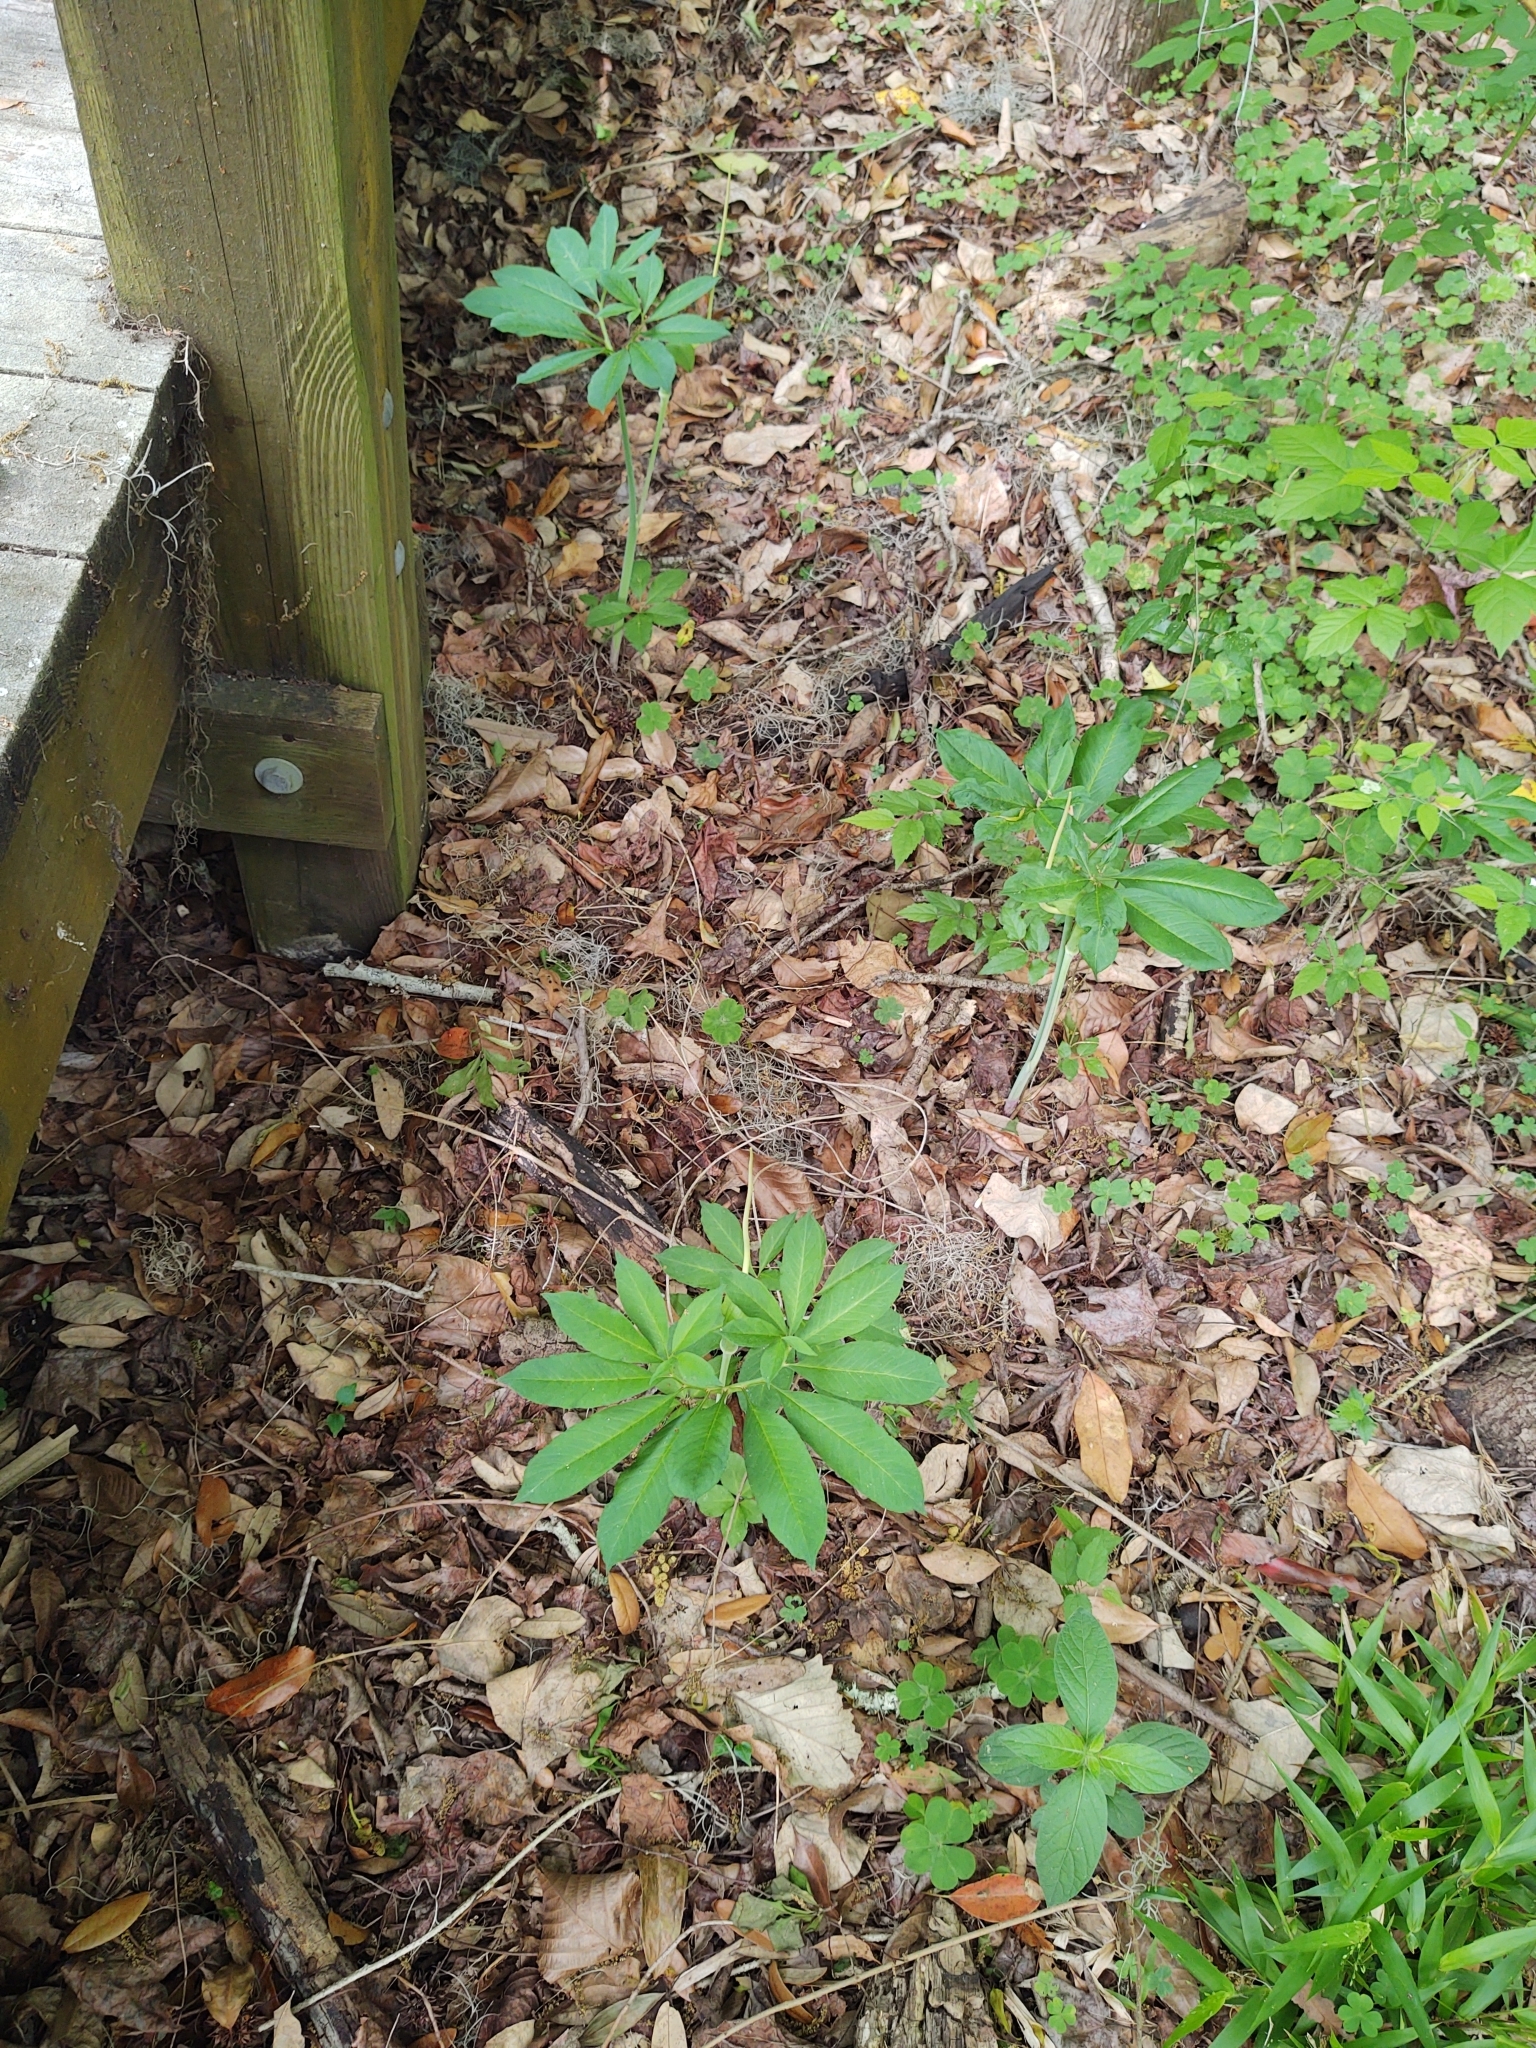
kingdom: Plantae
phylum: Tracheophyta
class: Liliopsida
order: Alismatales
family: Araceae
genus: Arisaema
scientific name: Arisaema dracontium
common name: Dragon-arum
